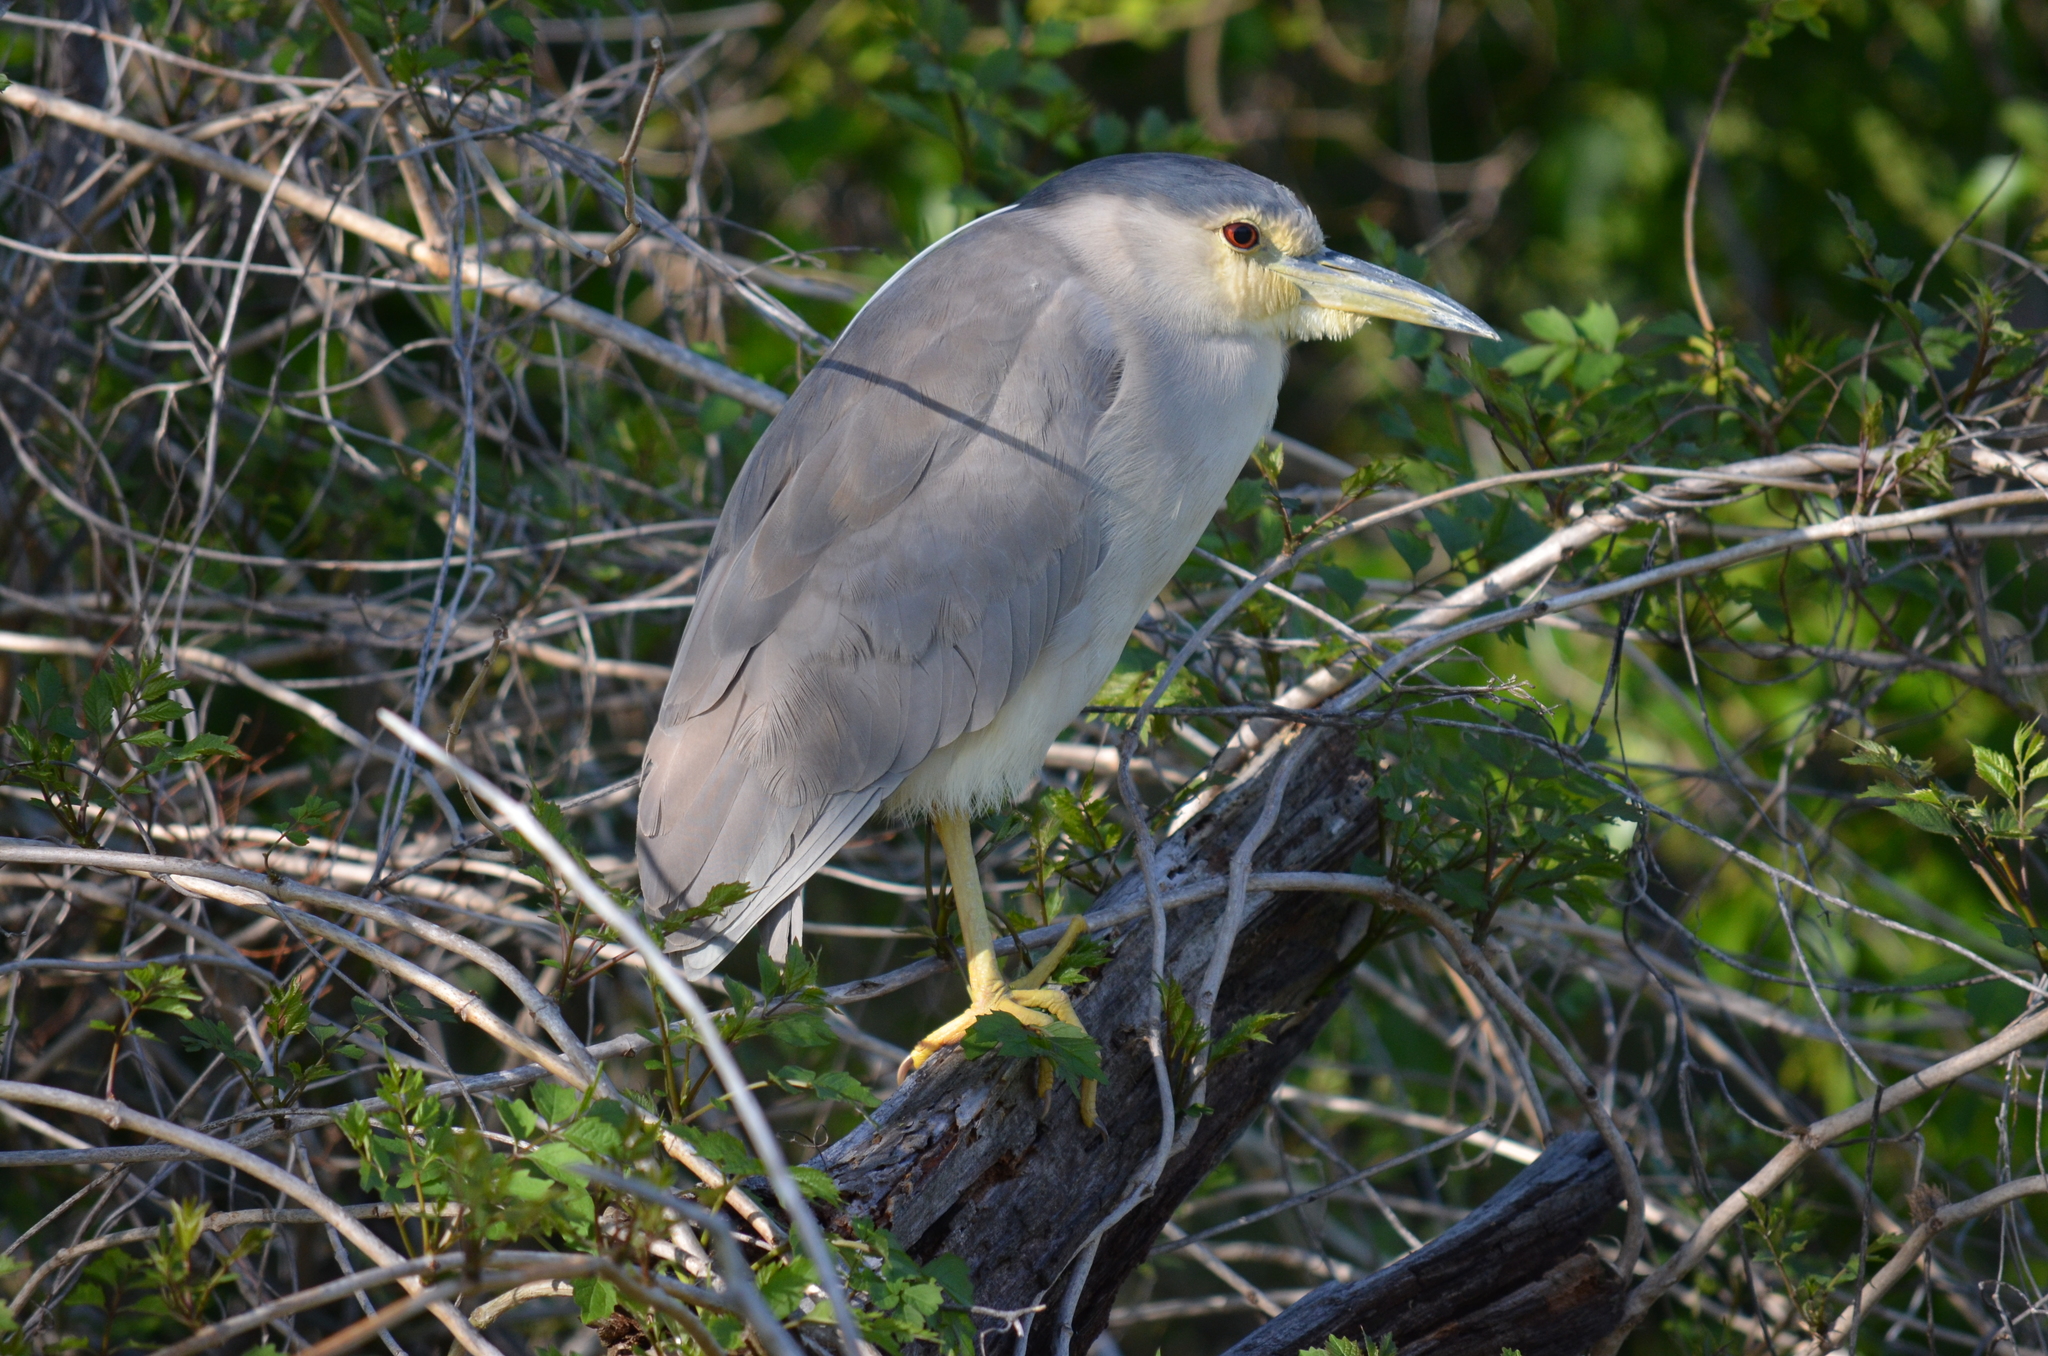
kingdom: Animalia
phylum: Chordata
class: Aves
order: Pelecaniformes
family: Ardeidae
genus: Nycticorax
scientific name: Nycticorax nycticorax
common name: Black-crowned night heron
